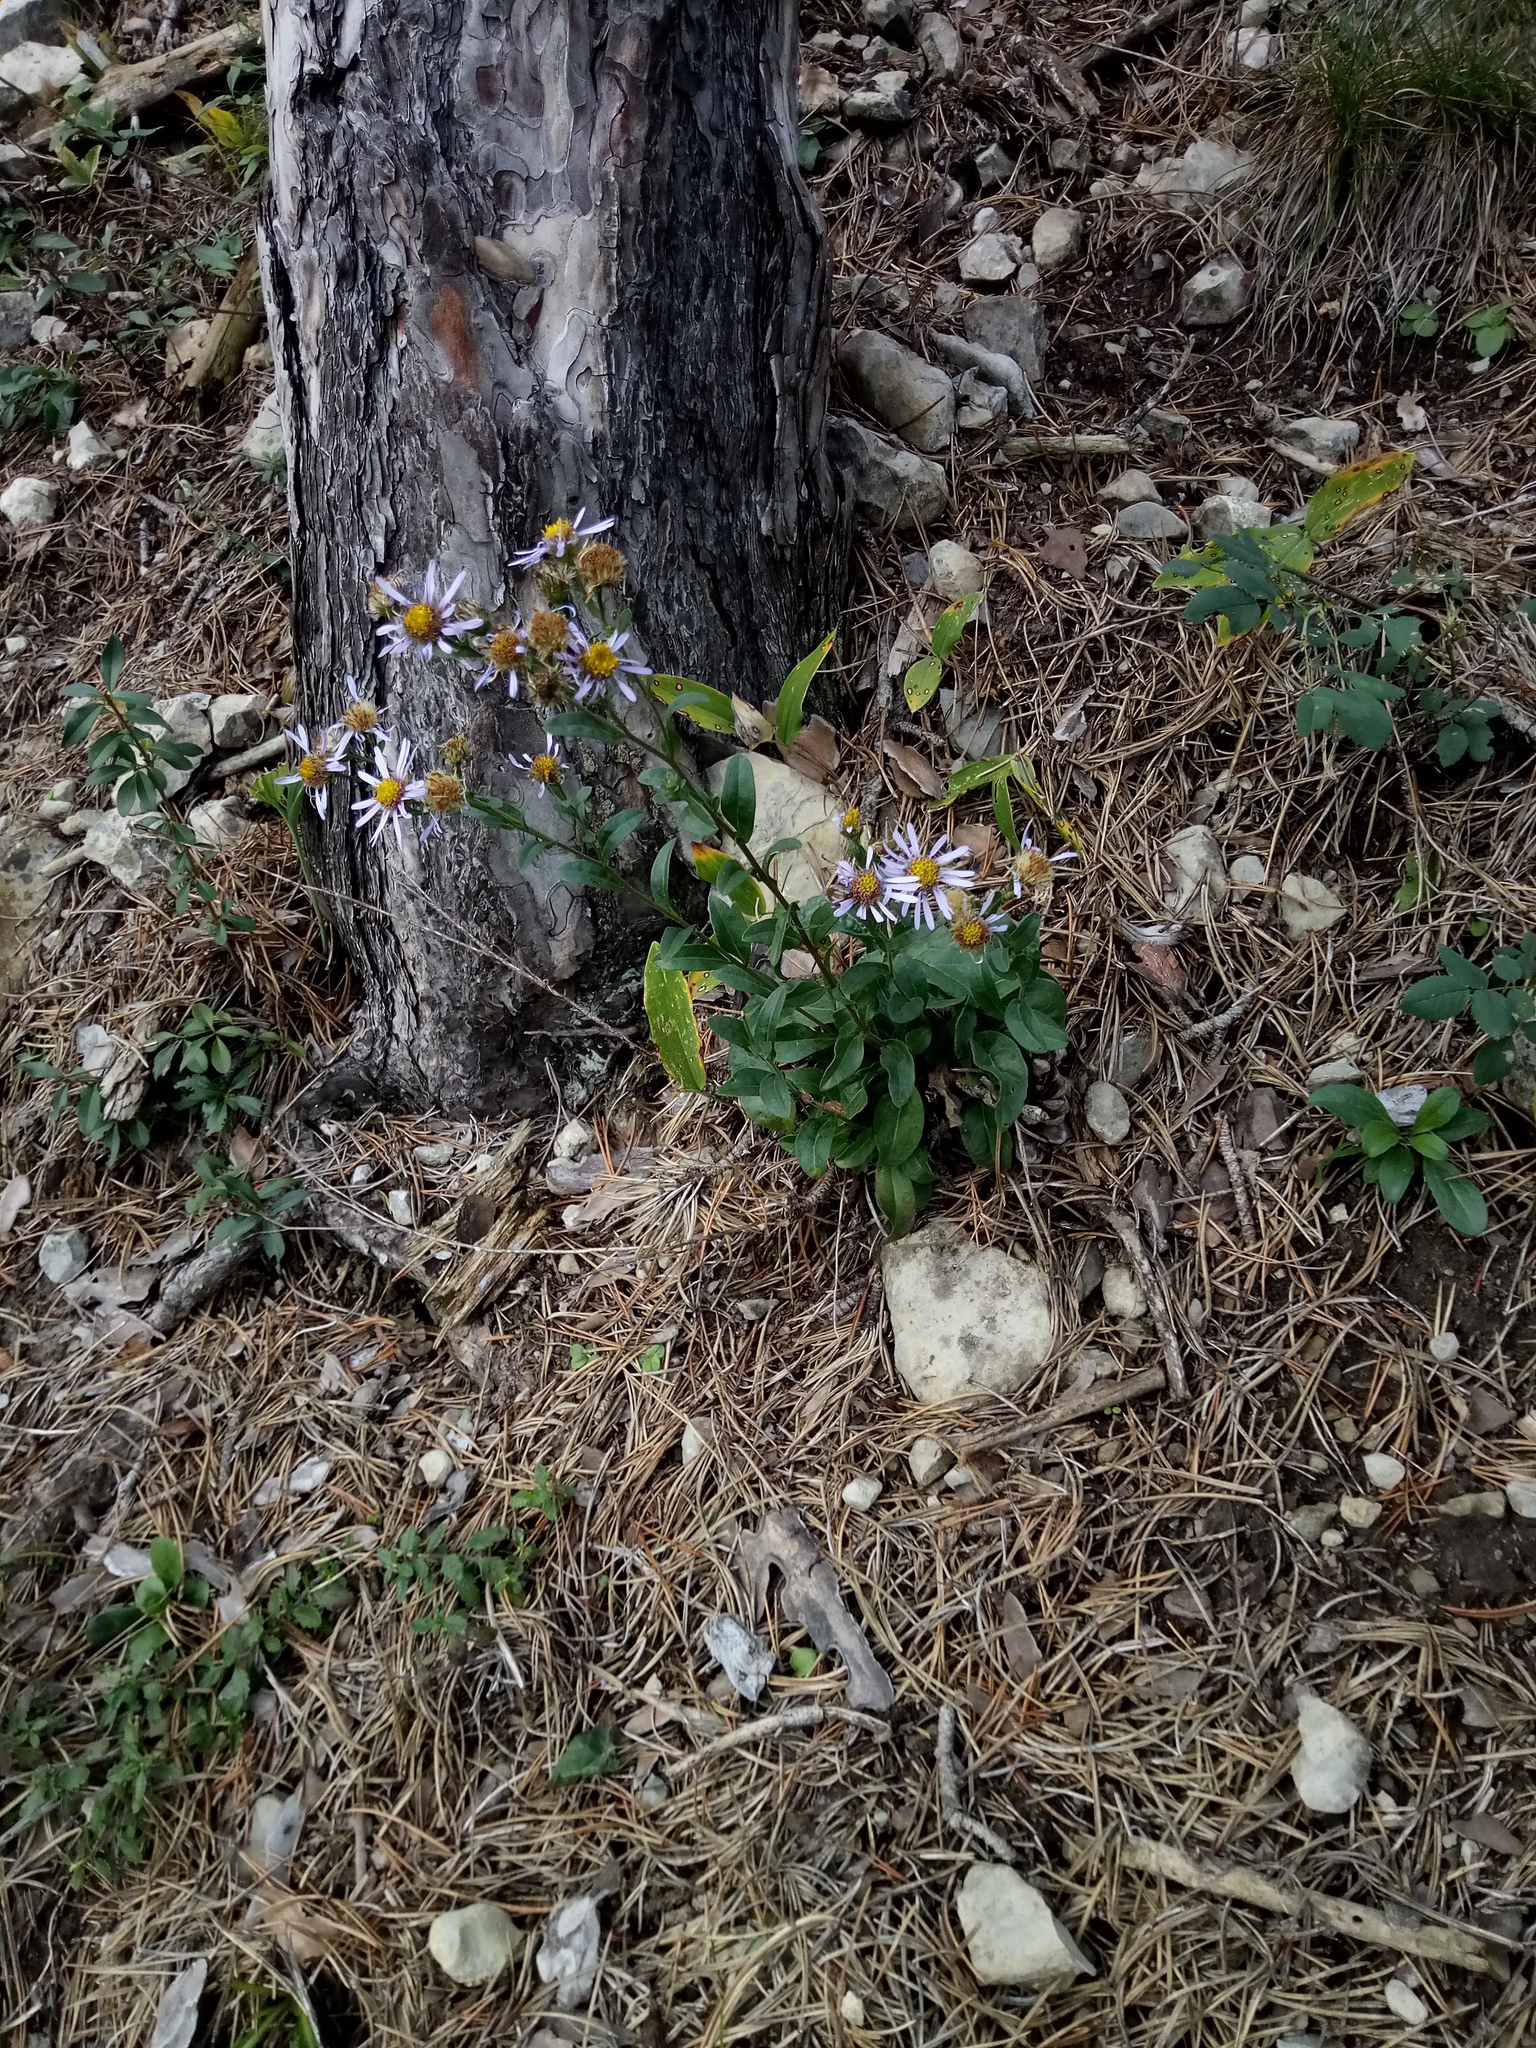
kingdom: Plantae
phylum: Tracheophyta
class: Magnoliopsida
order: Asterales
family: Asteraceae
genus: Aster
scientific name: Aster amellus
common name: European michaelmas daisy
